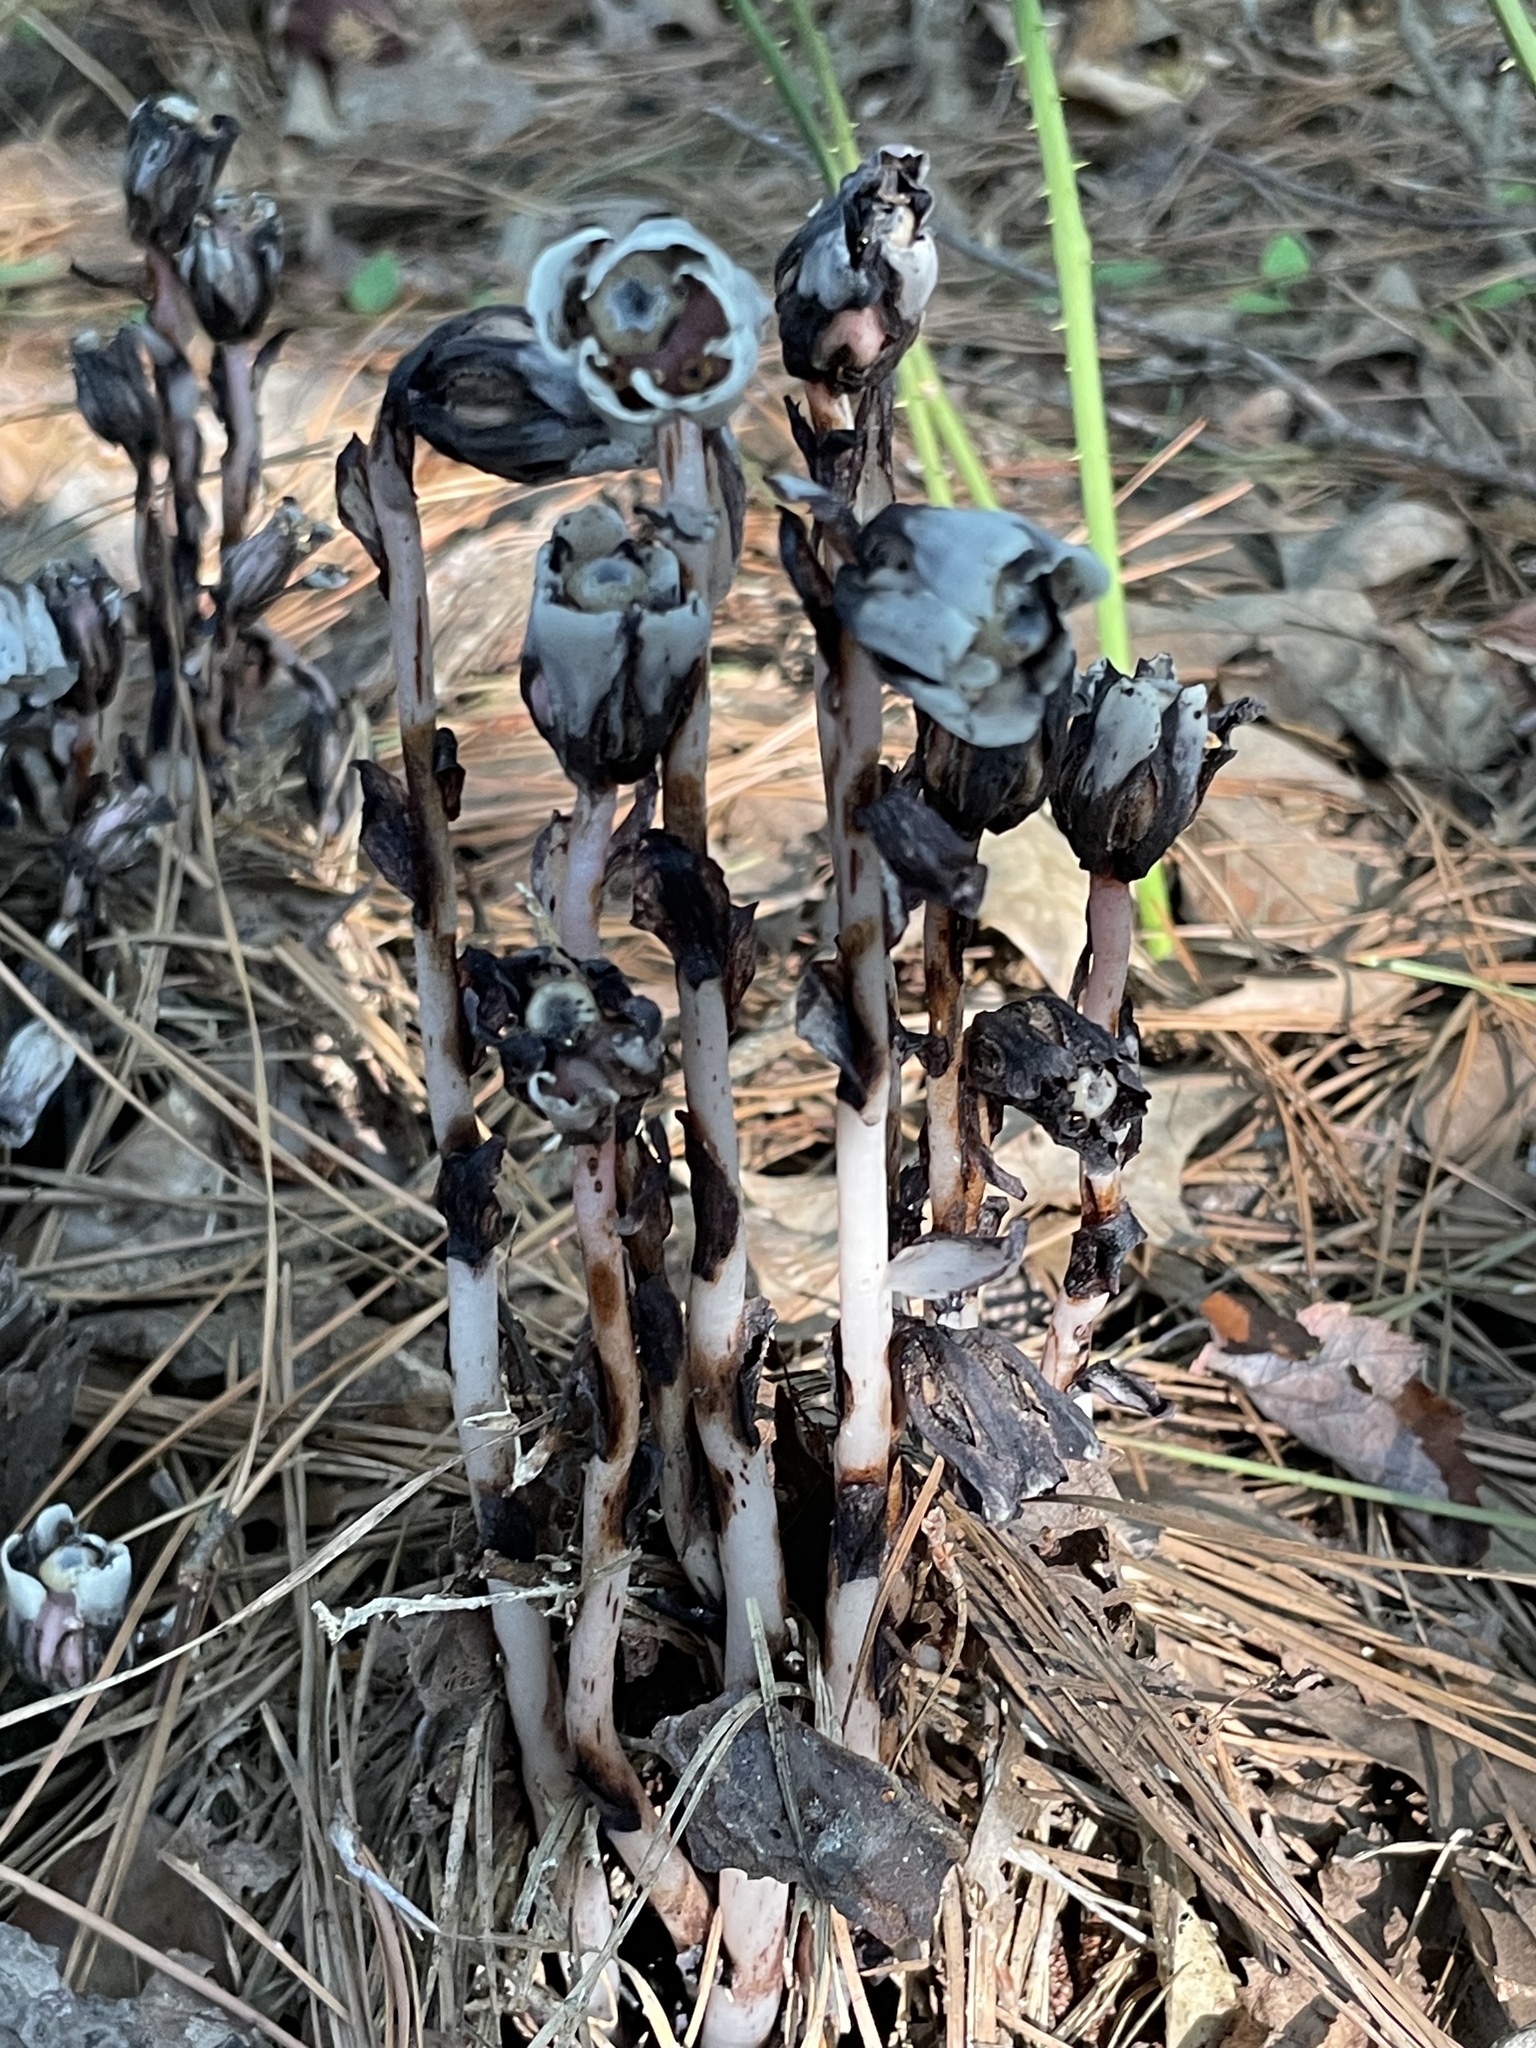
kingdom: Plantae
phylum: Tracheophyta
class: Magnoliopsida
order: Ericales
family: Ericaceae
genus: Monotropa
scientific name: Monotropa uniflora
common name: Convulsion root
